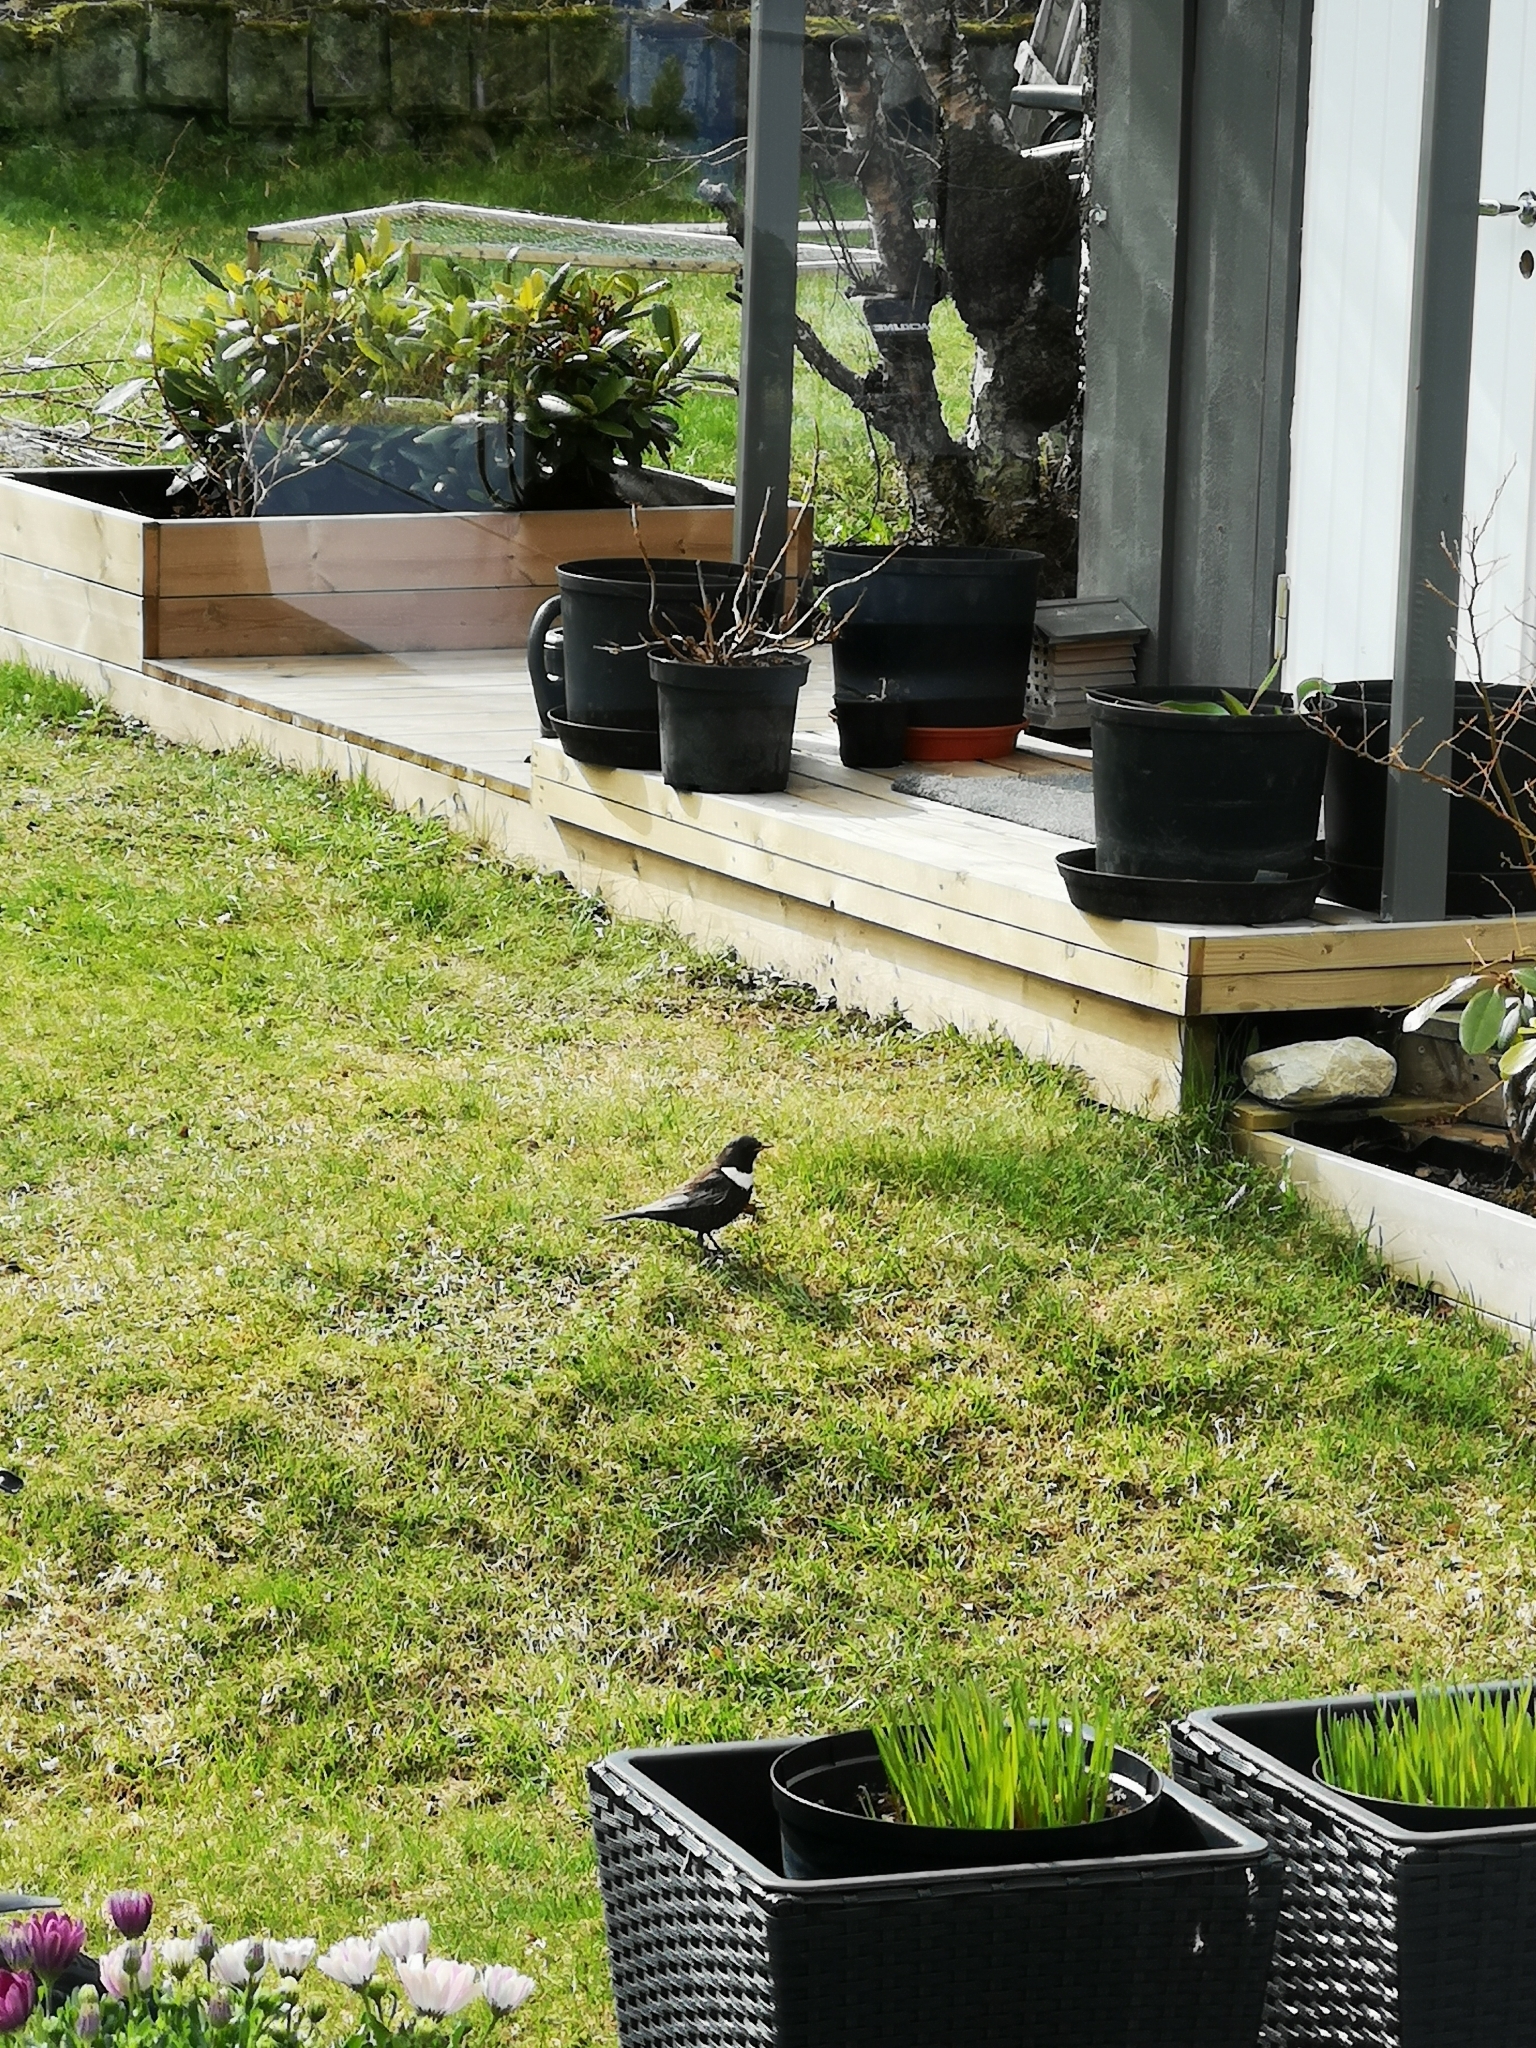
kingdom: Animalia
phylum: Chordata
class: Aves
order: Passeriformes
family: Turdidae
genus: Turdus
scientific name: Turdus torquatus
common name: Ring ouzel
